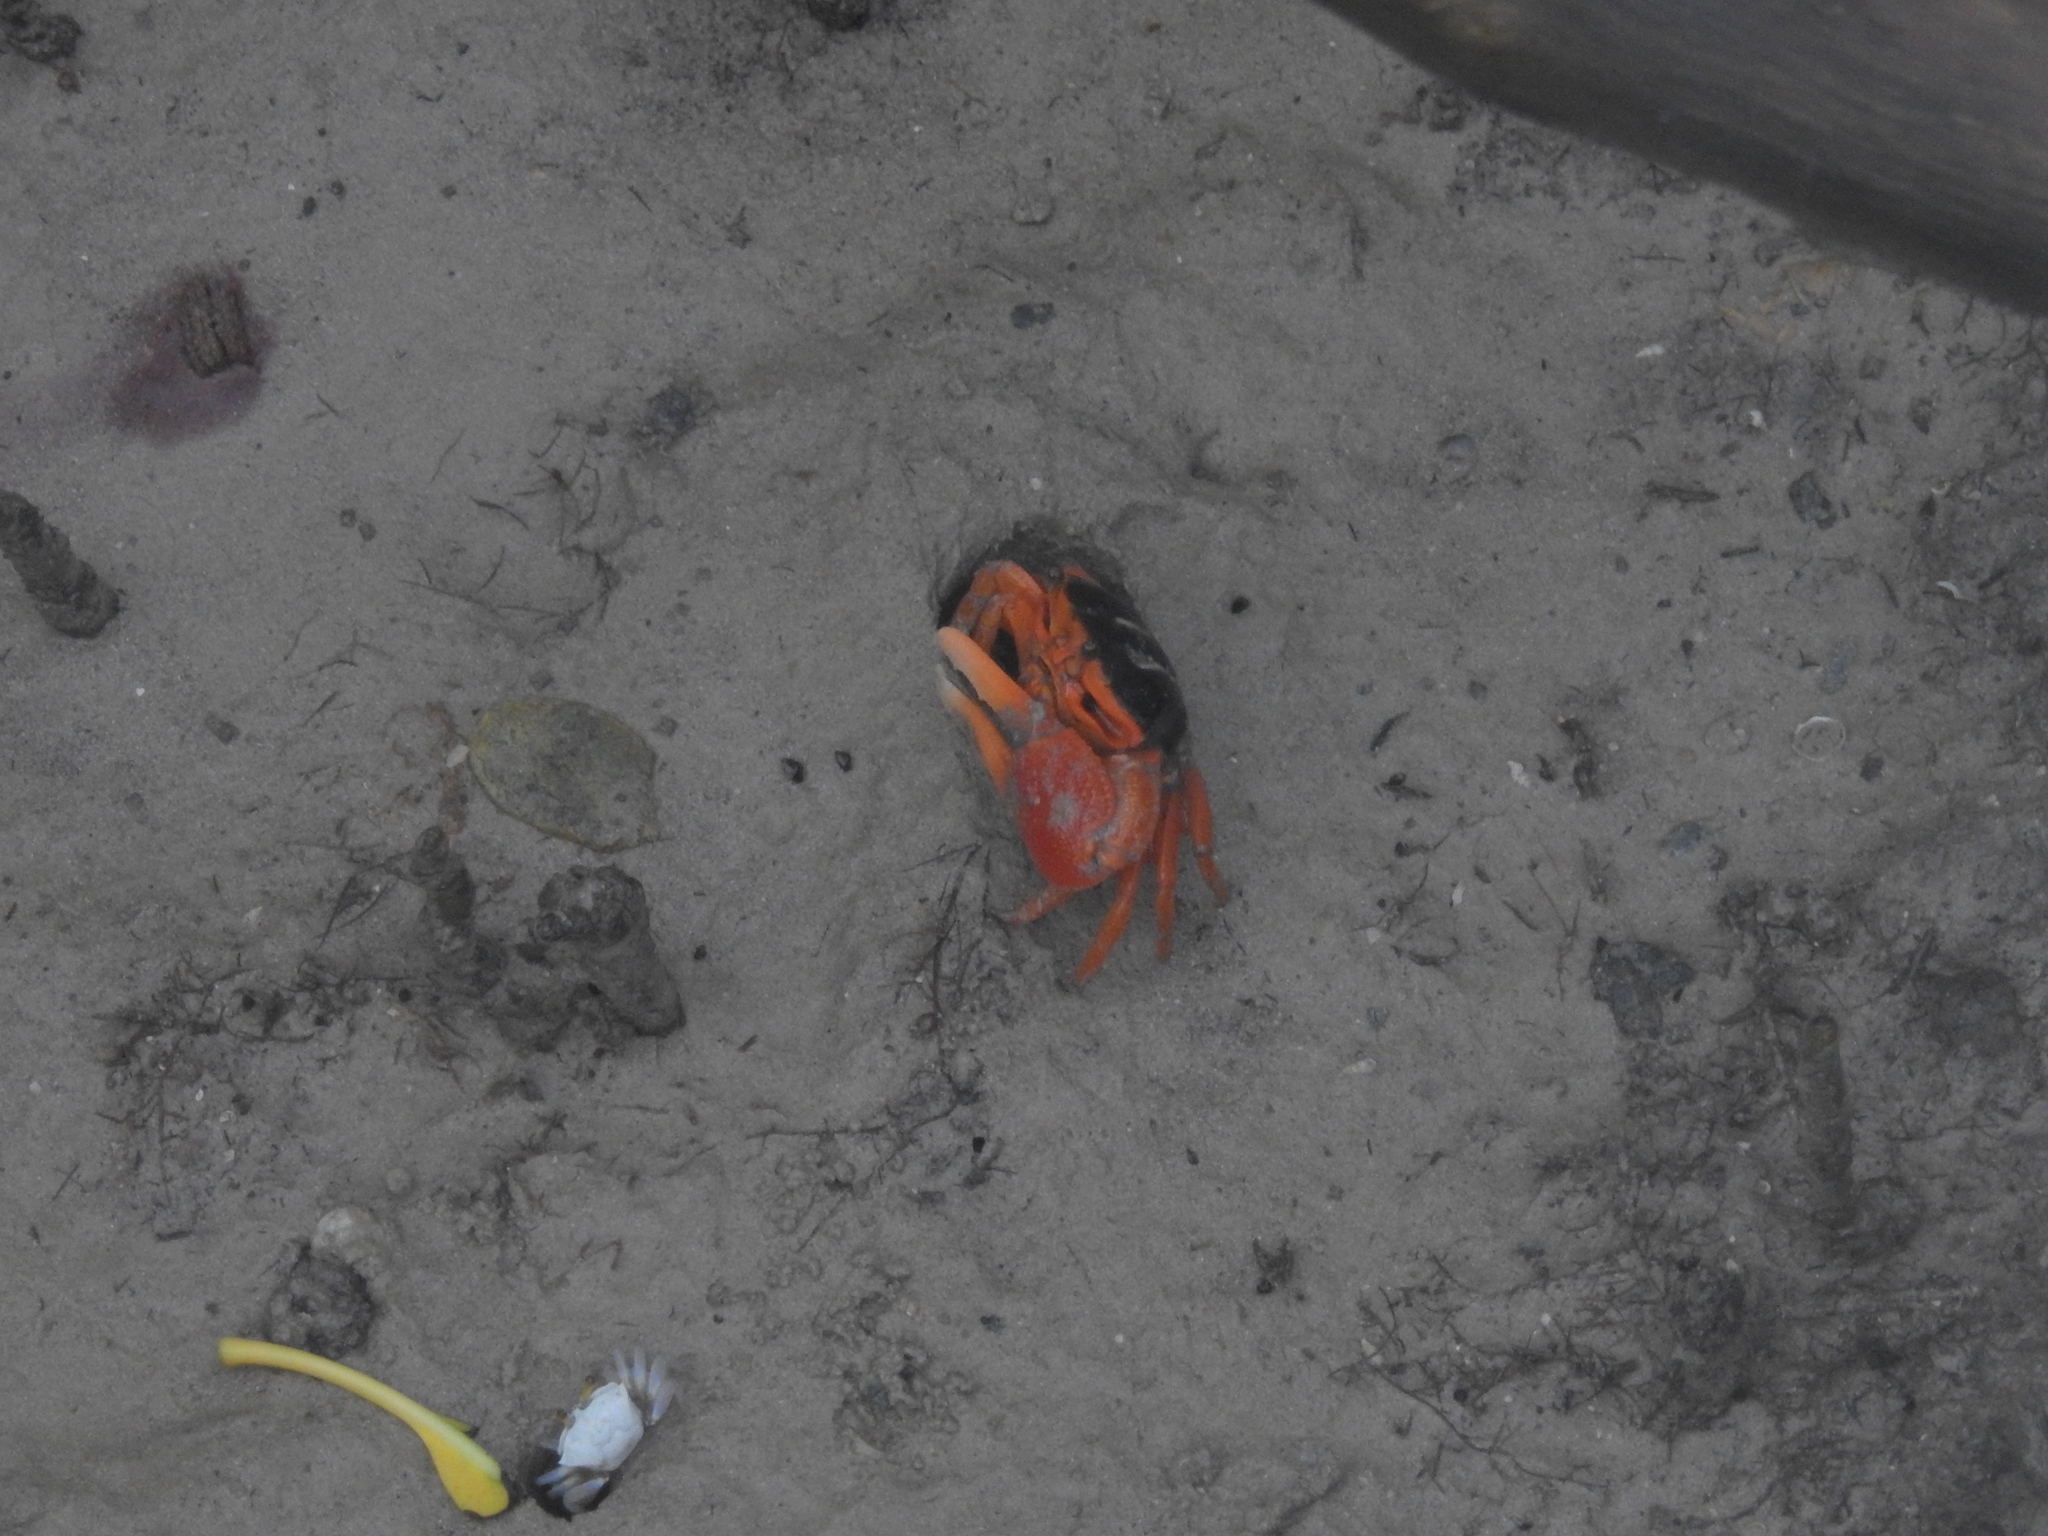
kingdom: Animalia
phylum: Arthropoda
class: Malacostraca
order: Decapoda
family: Ocypodidae
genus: Tubuca
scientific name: Tubuca flammula
